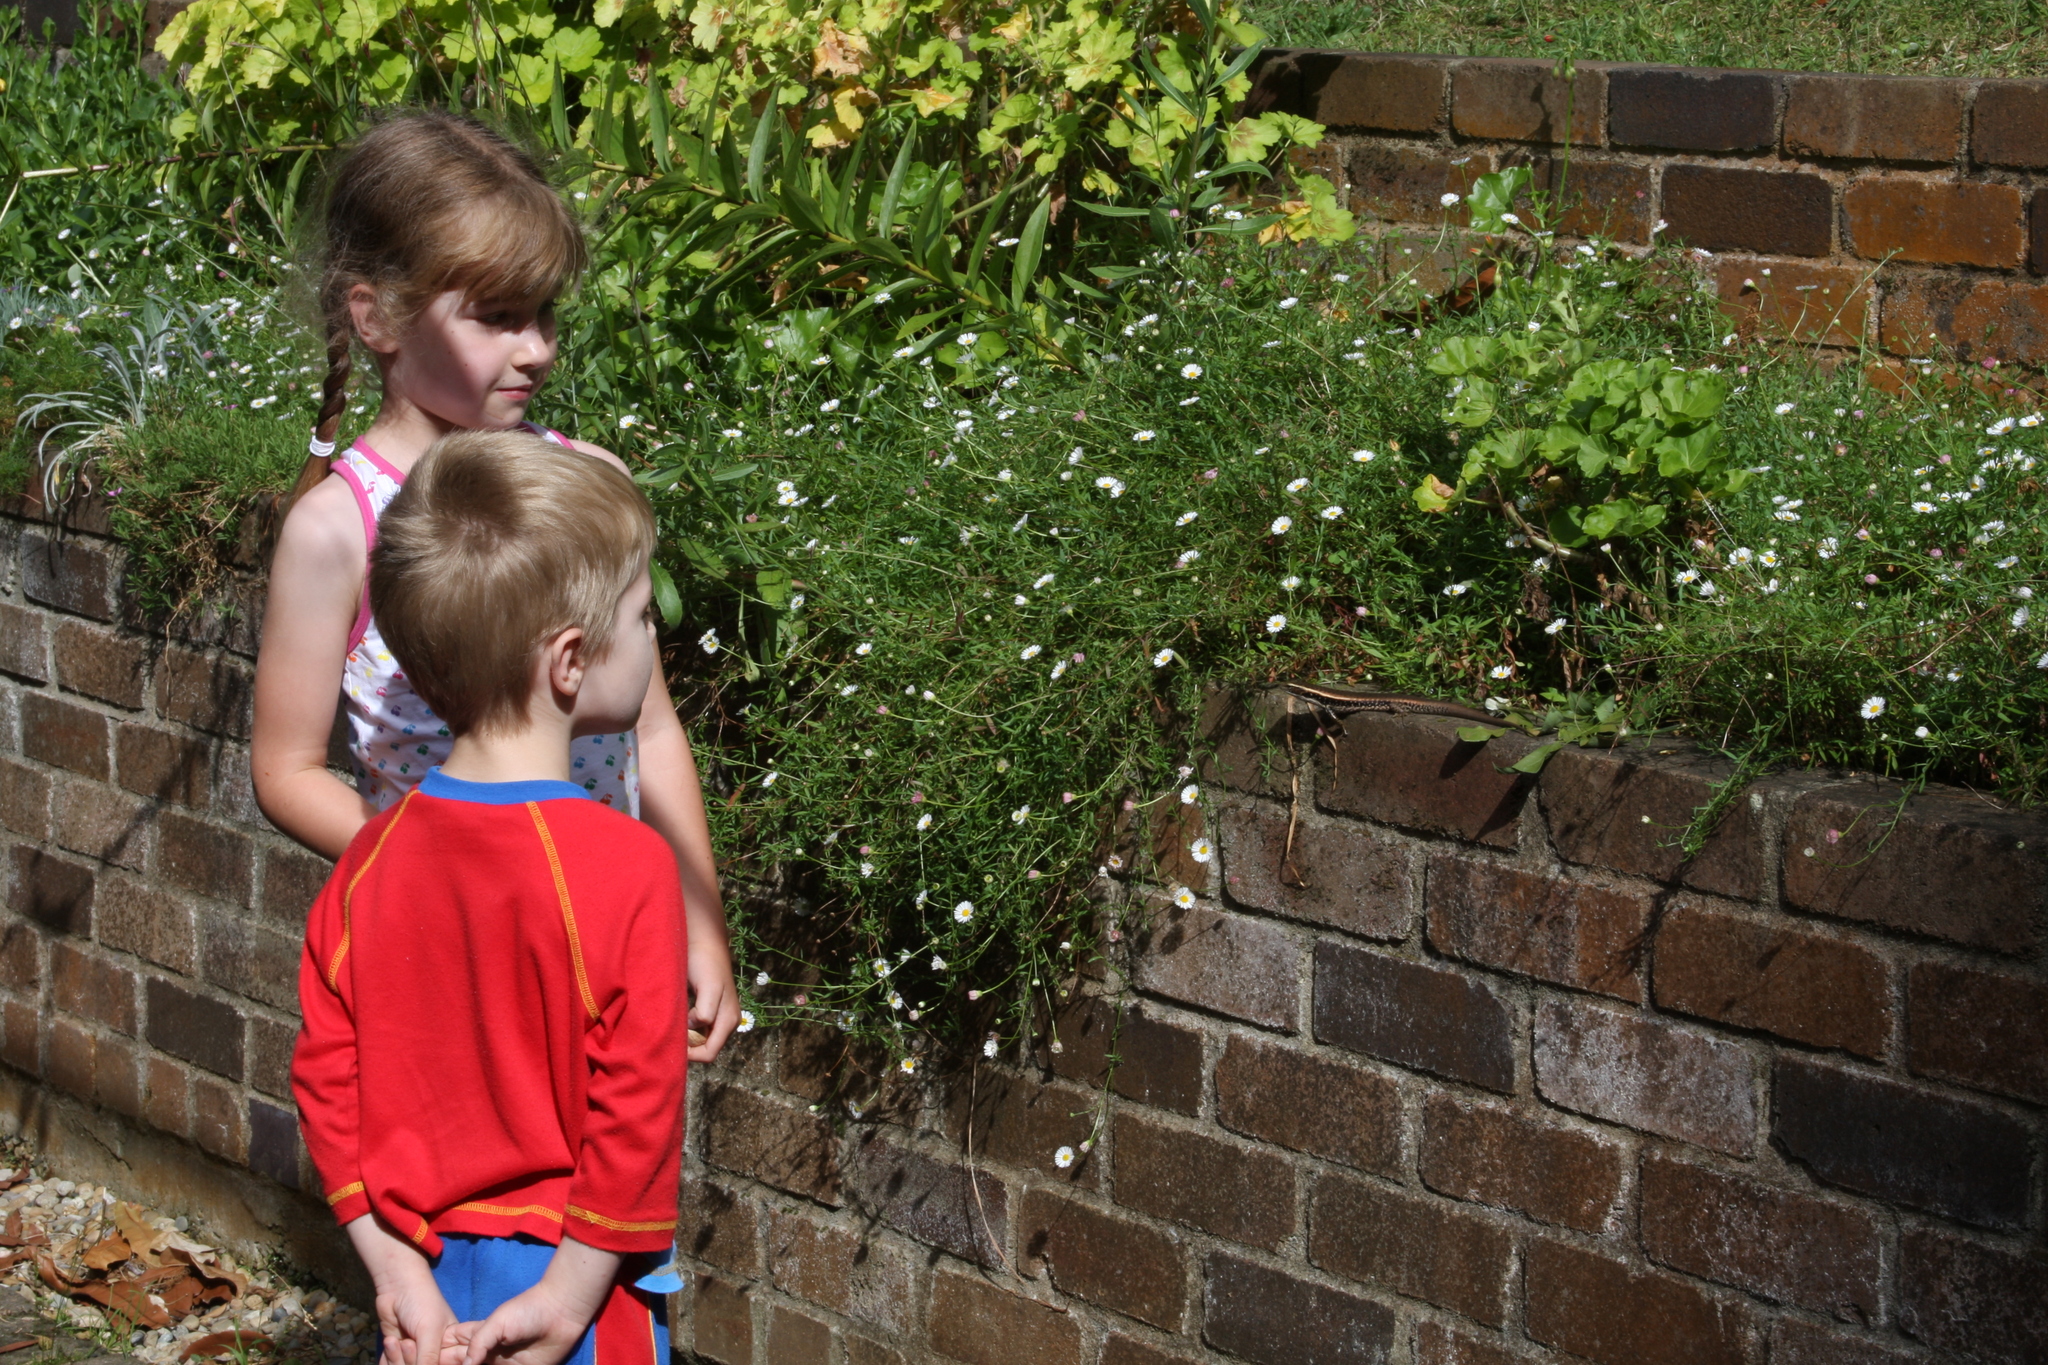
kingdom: Animalia
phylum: Chordata
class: Squamata
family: Scincidae
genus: Eulamprus
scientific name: Eulamprus quoyii
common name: Eastern water skink
